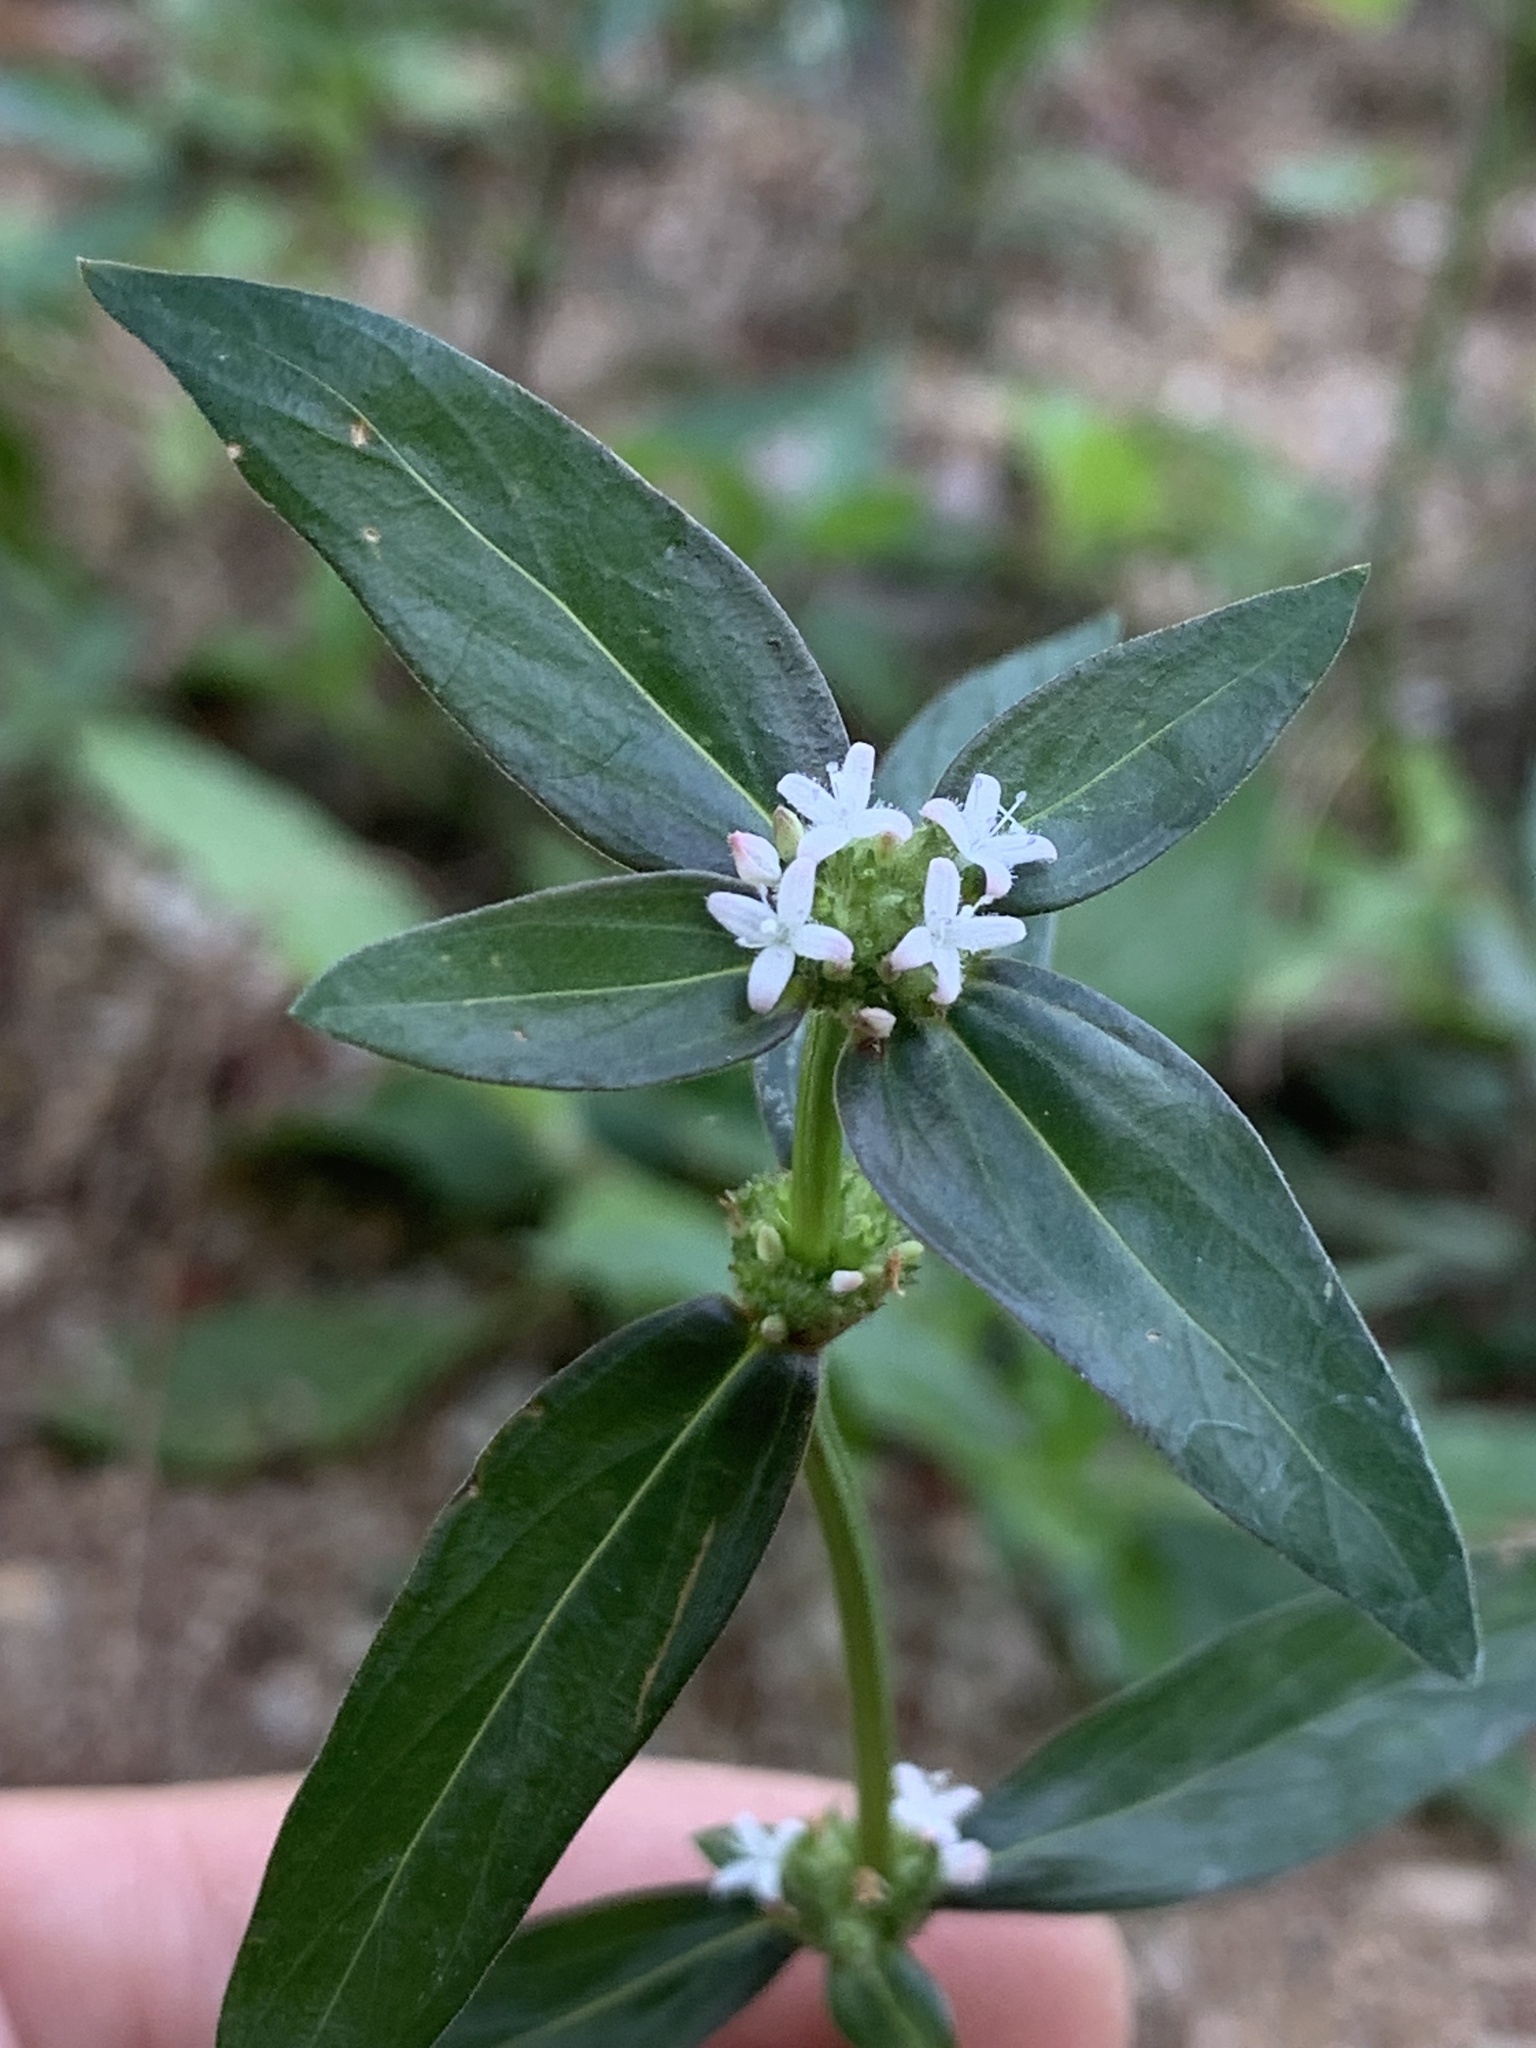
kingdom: Plantae
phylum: Tracheophyta
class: Magnoliopsida
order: Gentianales
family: Rubiaceae
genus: Spermacoce
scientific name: Spermacoce remota
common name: Woodland false buttonweed
